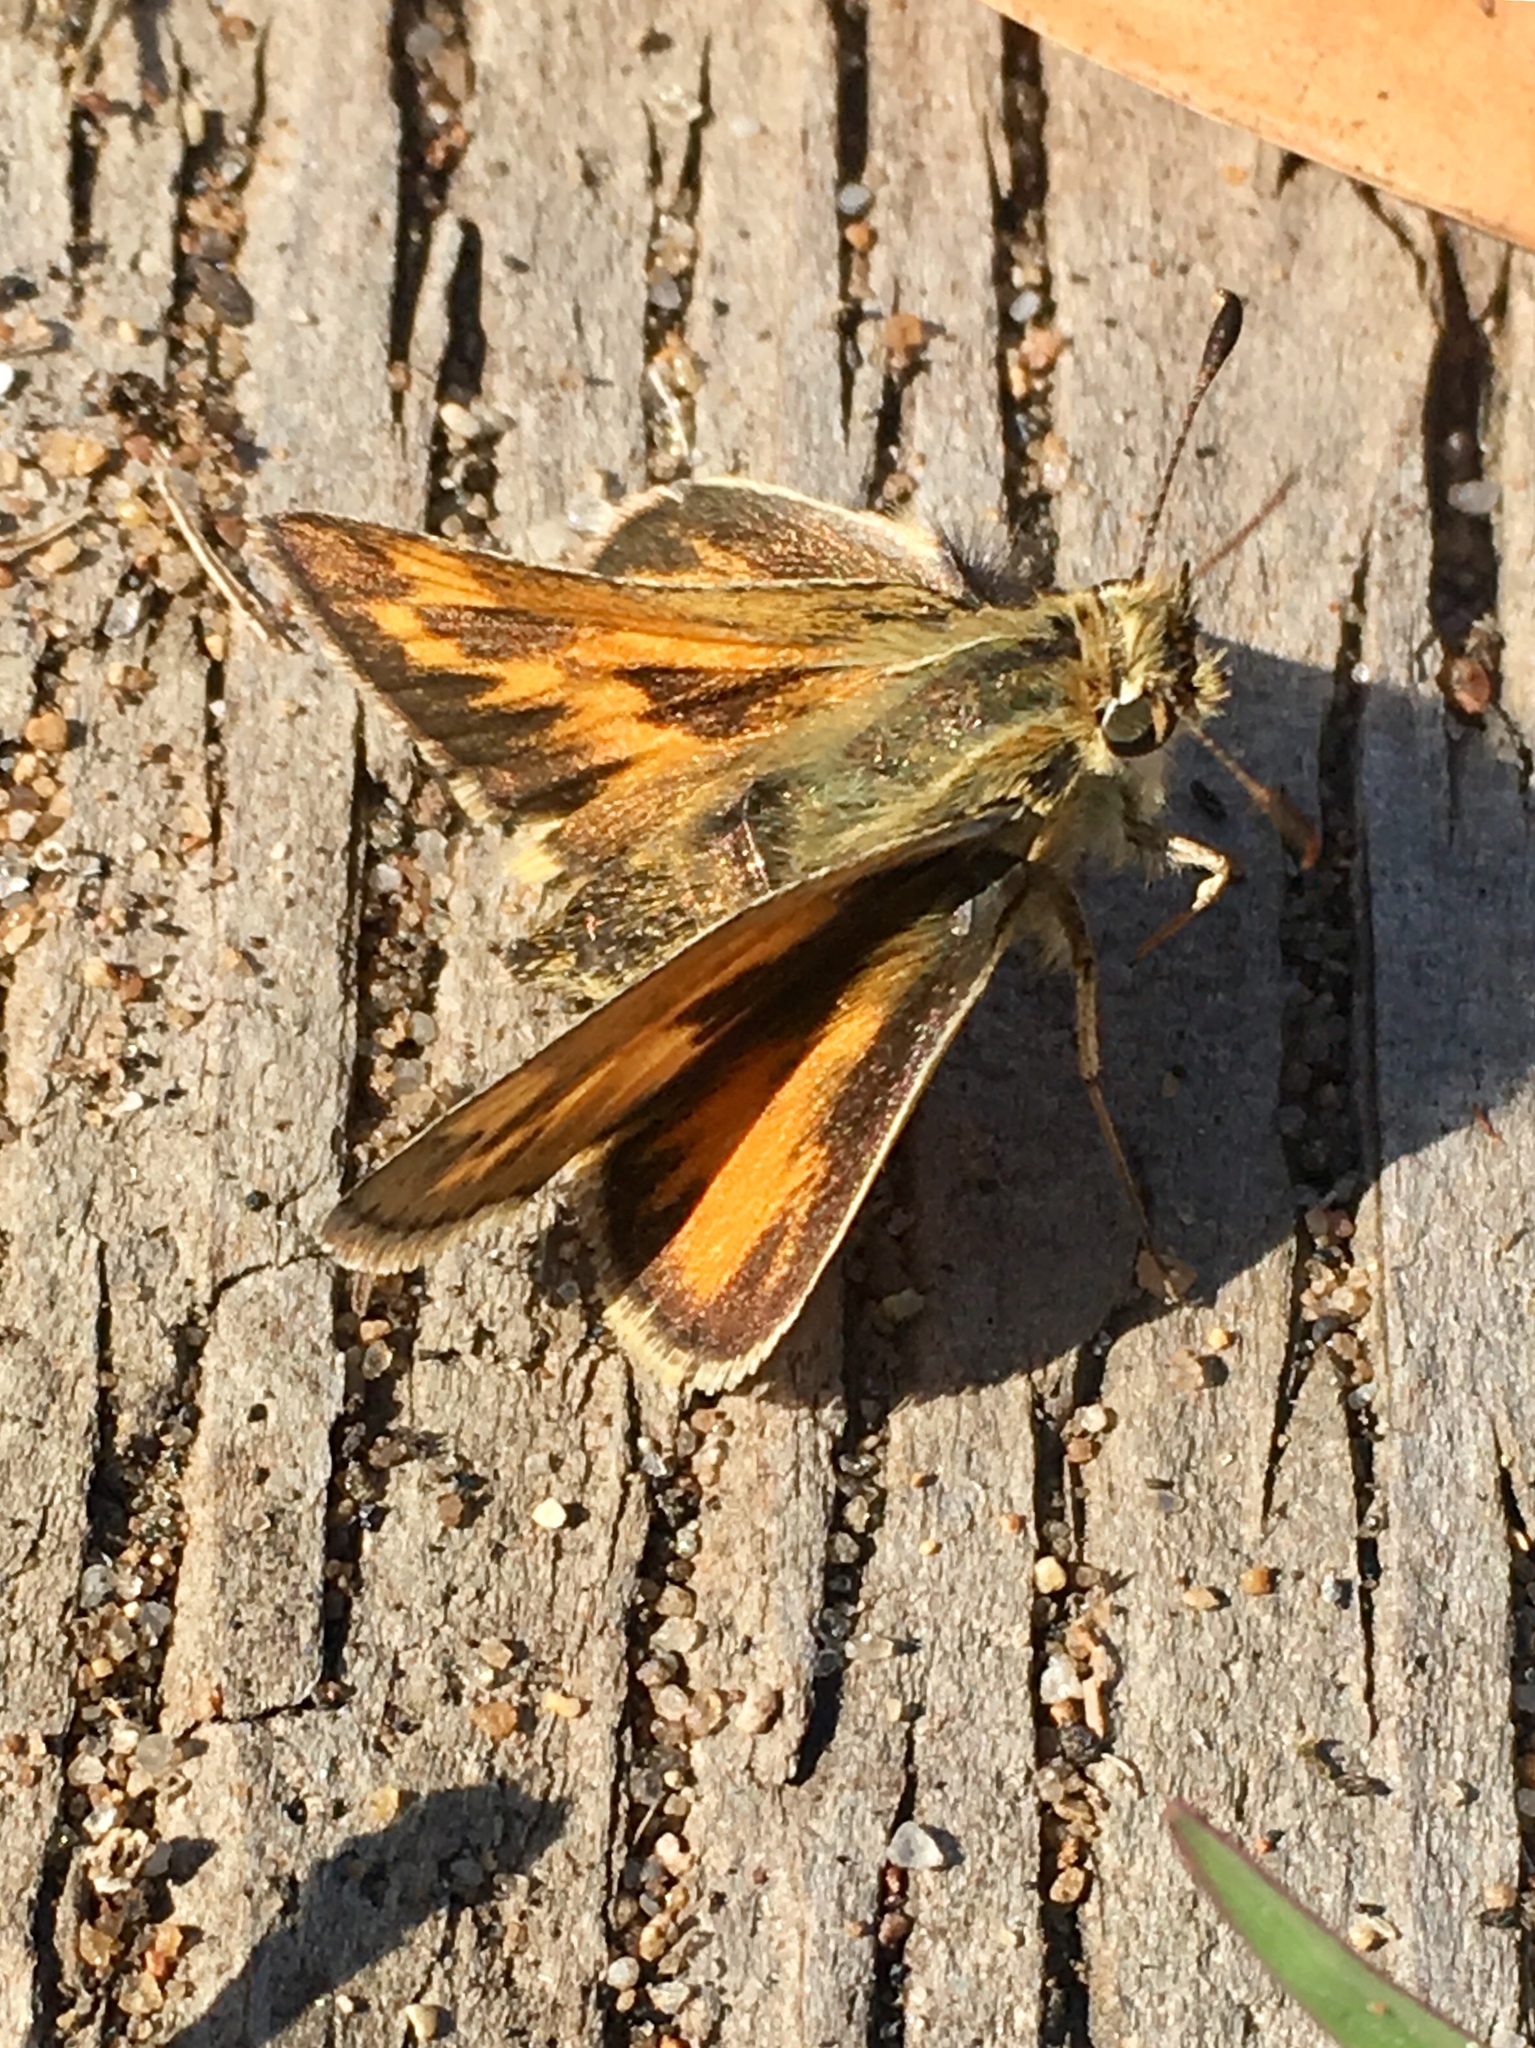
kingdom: Animalia
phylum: Arthropoda
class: Insecta
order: Lepidoptera
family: Hesperiidae
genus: Polites
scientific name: Polites sabuleti
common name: Sandhill skipper
